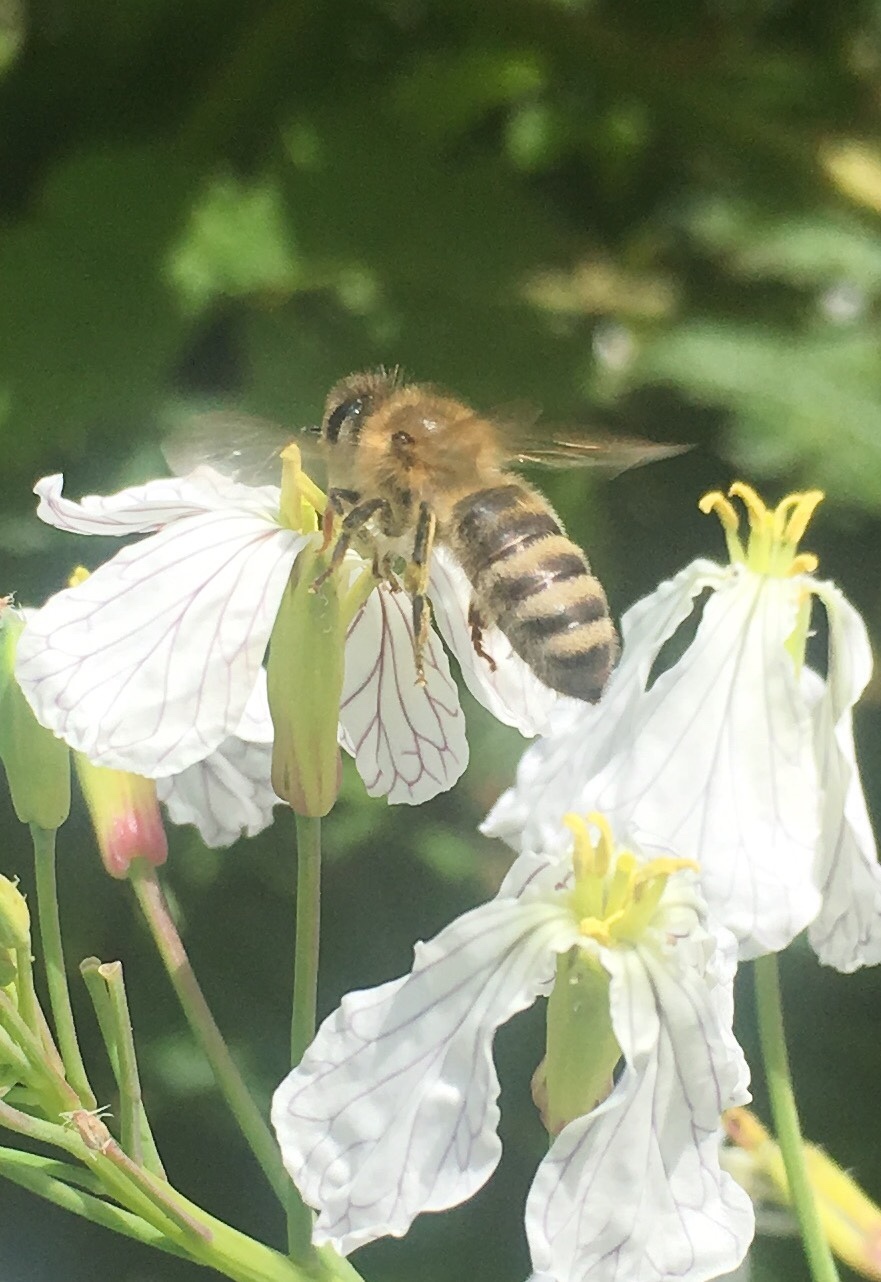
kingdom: Animalia
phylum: Arthropoda
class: Insecta
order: Hymenoptera
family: Apidae
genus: Apis
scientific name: Apis mellifera
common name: Honey bee
